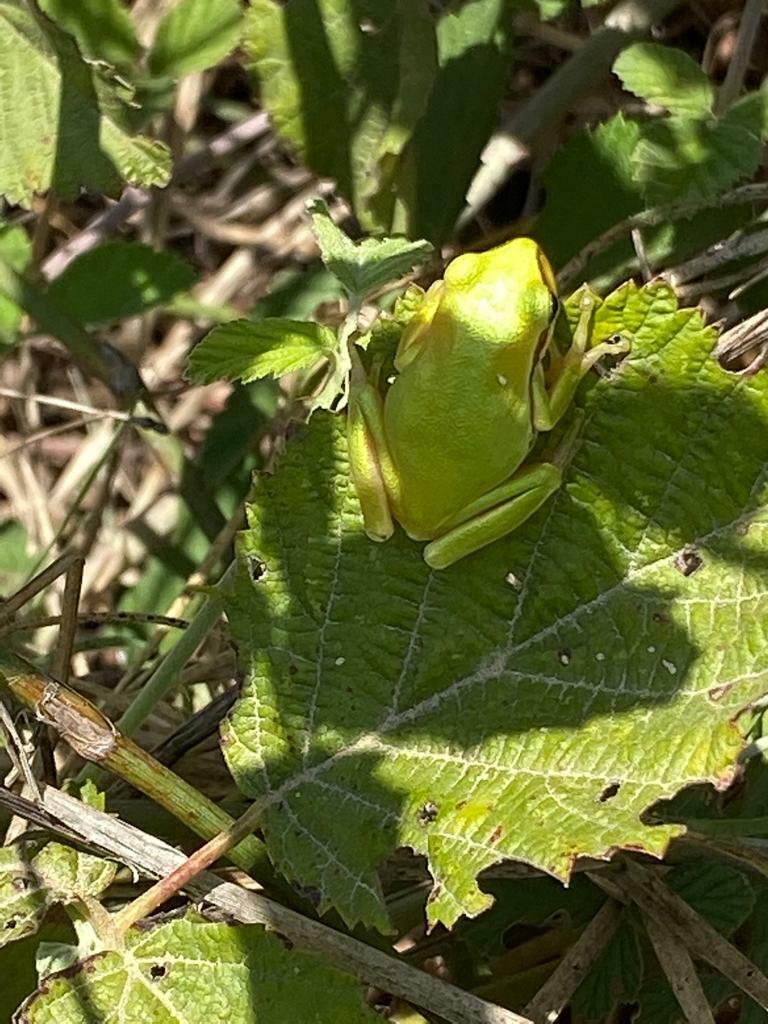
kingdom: Animalia
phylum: Chordata
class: Amphibia
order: Anura
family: Hylidae
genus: Hyla
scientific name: Hyla felixarabica
